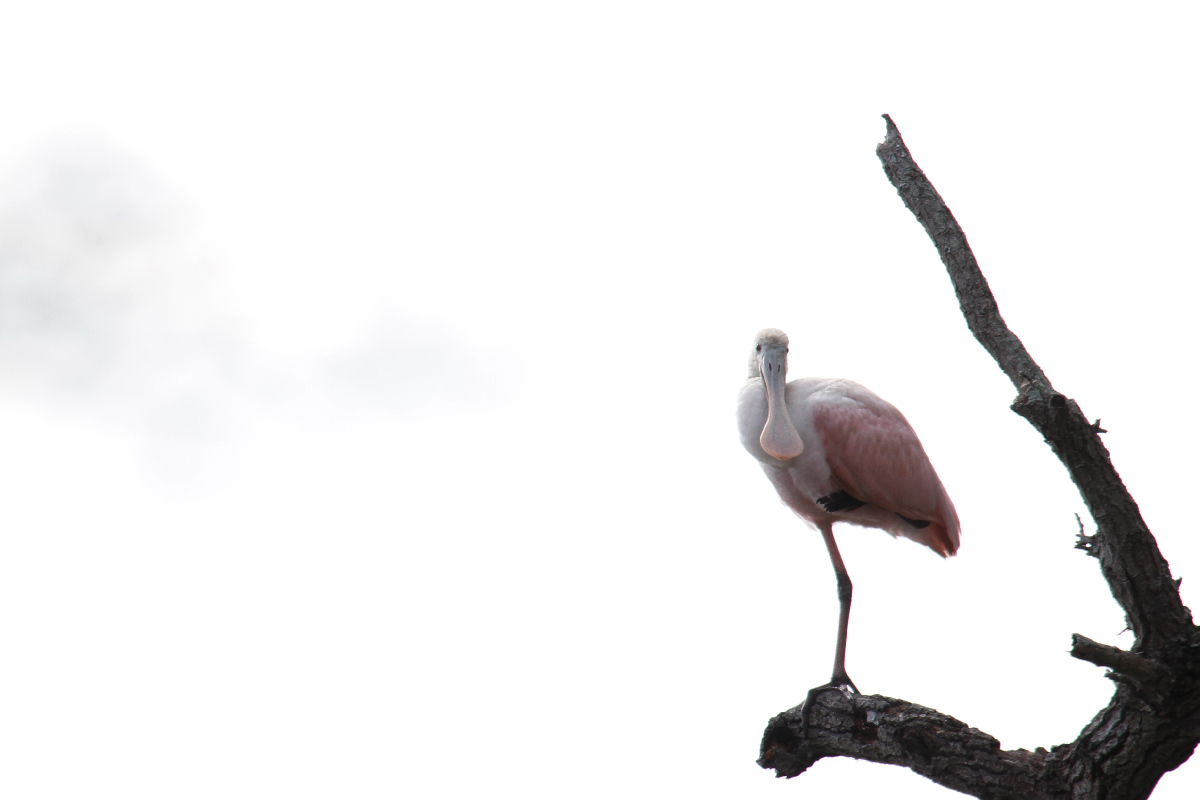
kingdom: Animalia
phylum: Chordata
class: Aves
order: Pelecaniformes
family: Threskiornithidae
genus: Platalea
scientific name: Platalea ajaja
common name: Roseate spoonbill
